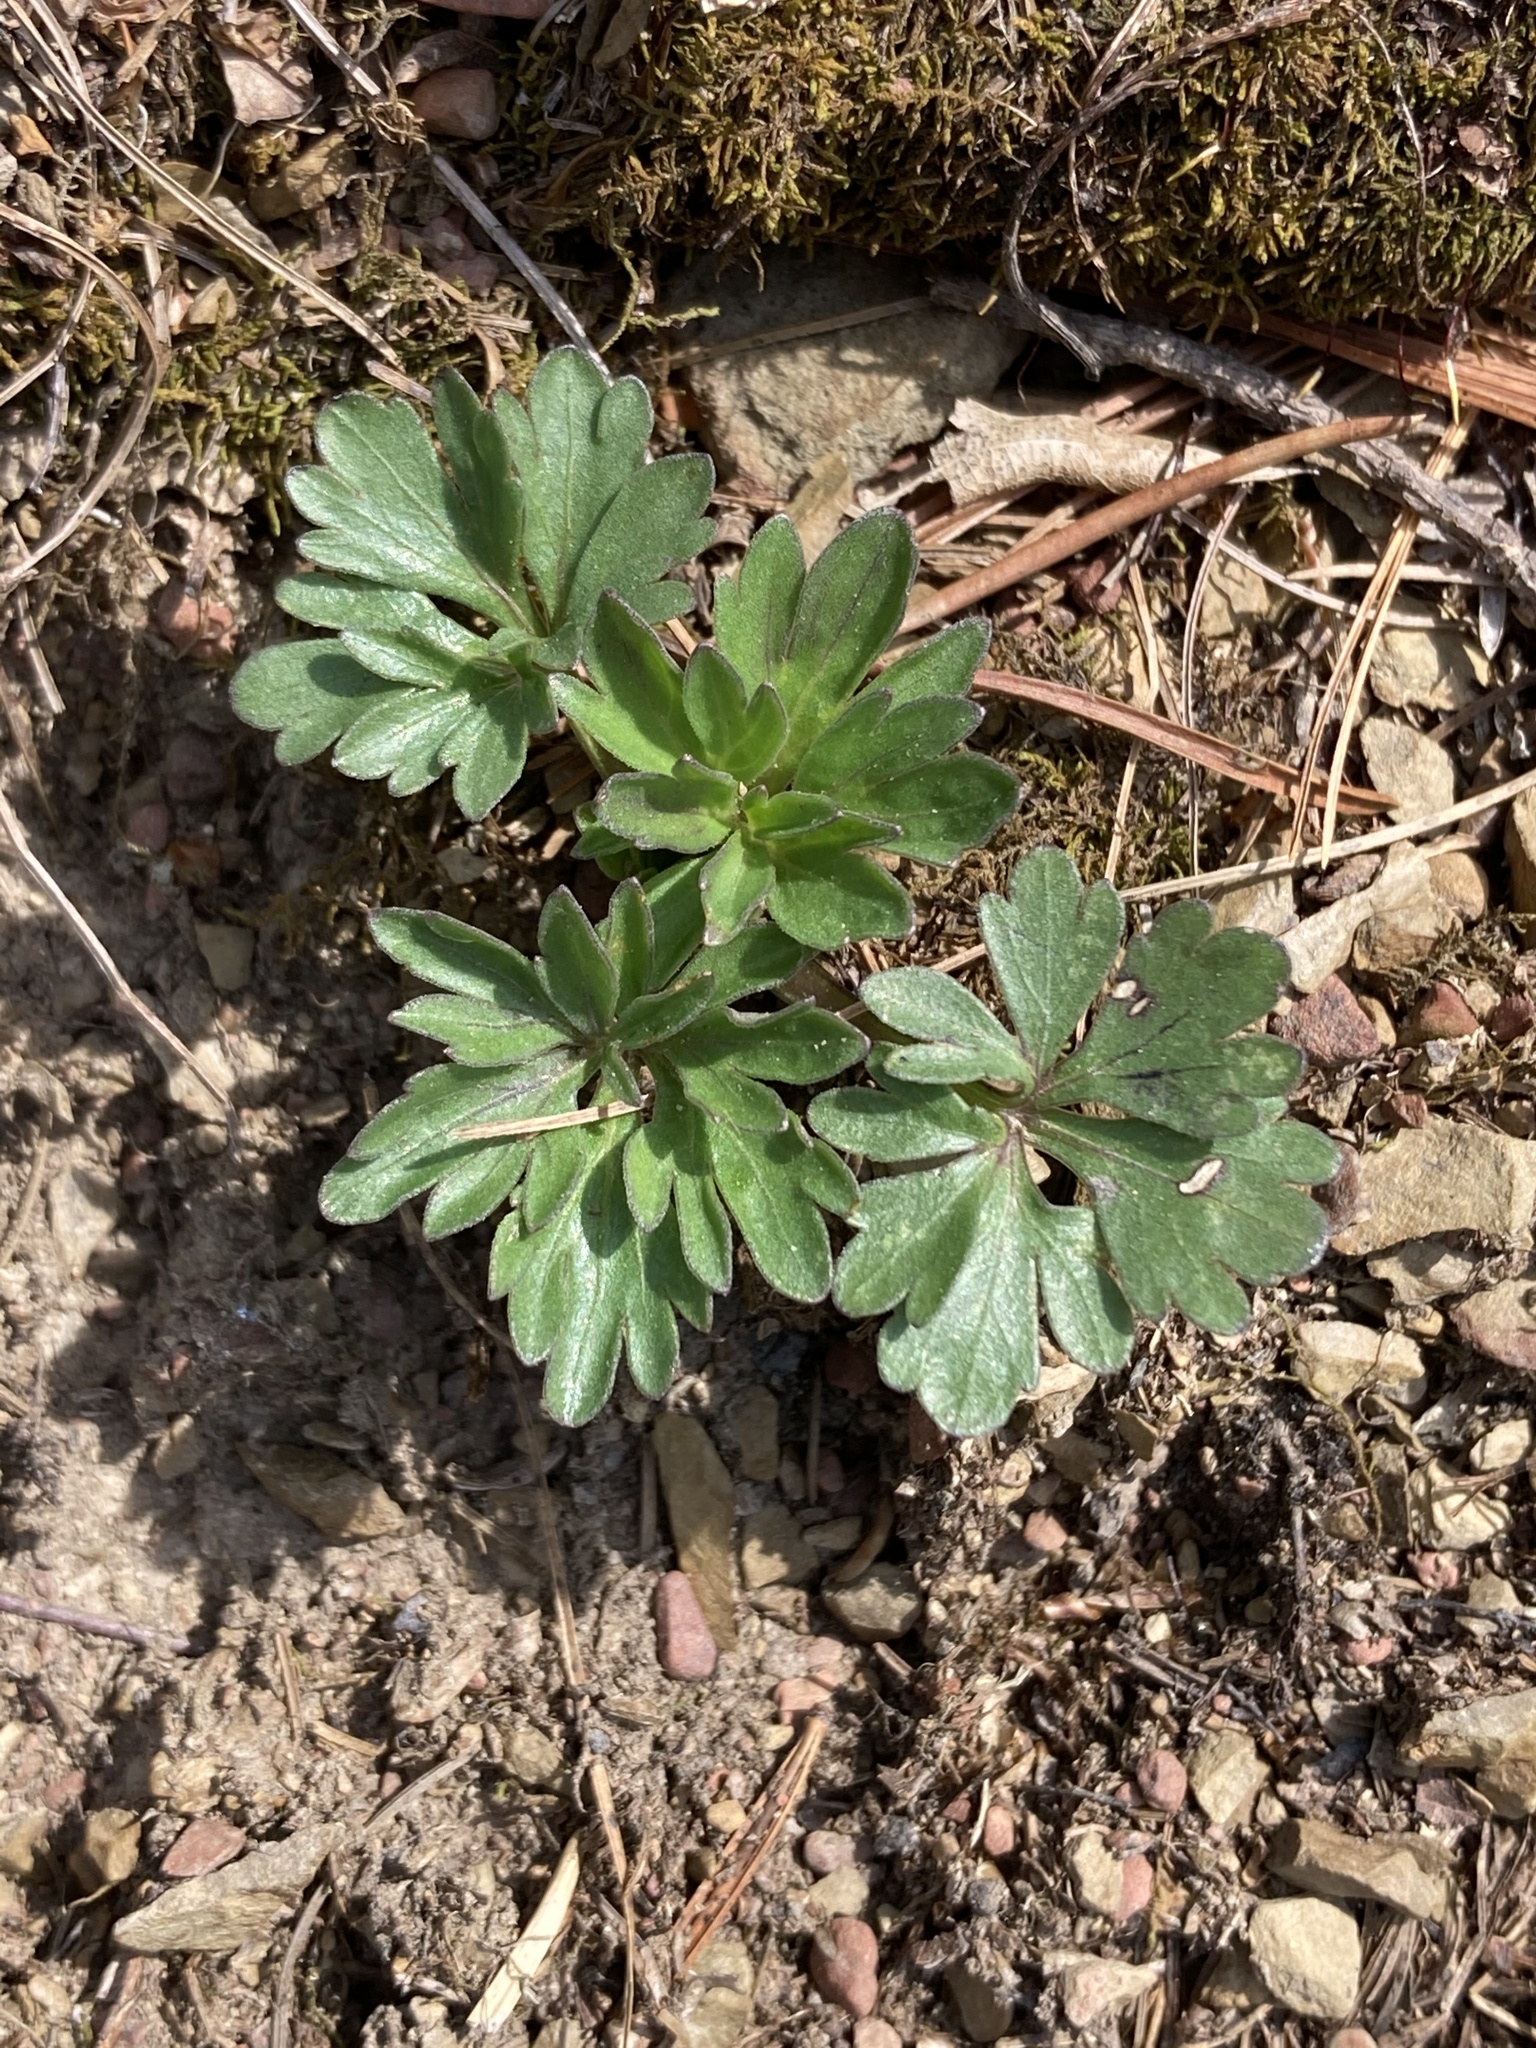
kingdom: Plantae
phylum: Tracheophyta
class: Magnoliopsida
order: Malpighiales
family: Violaceae
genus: Viola
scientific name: Viola pedata
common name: Pansy violet
